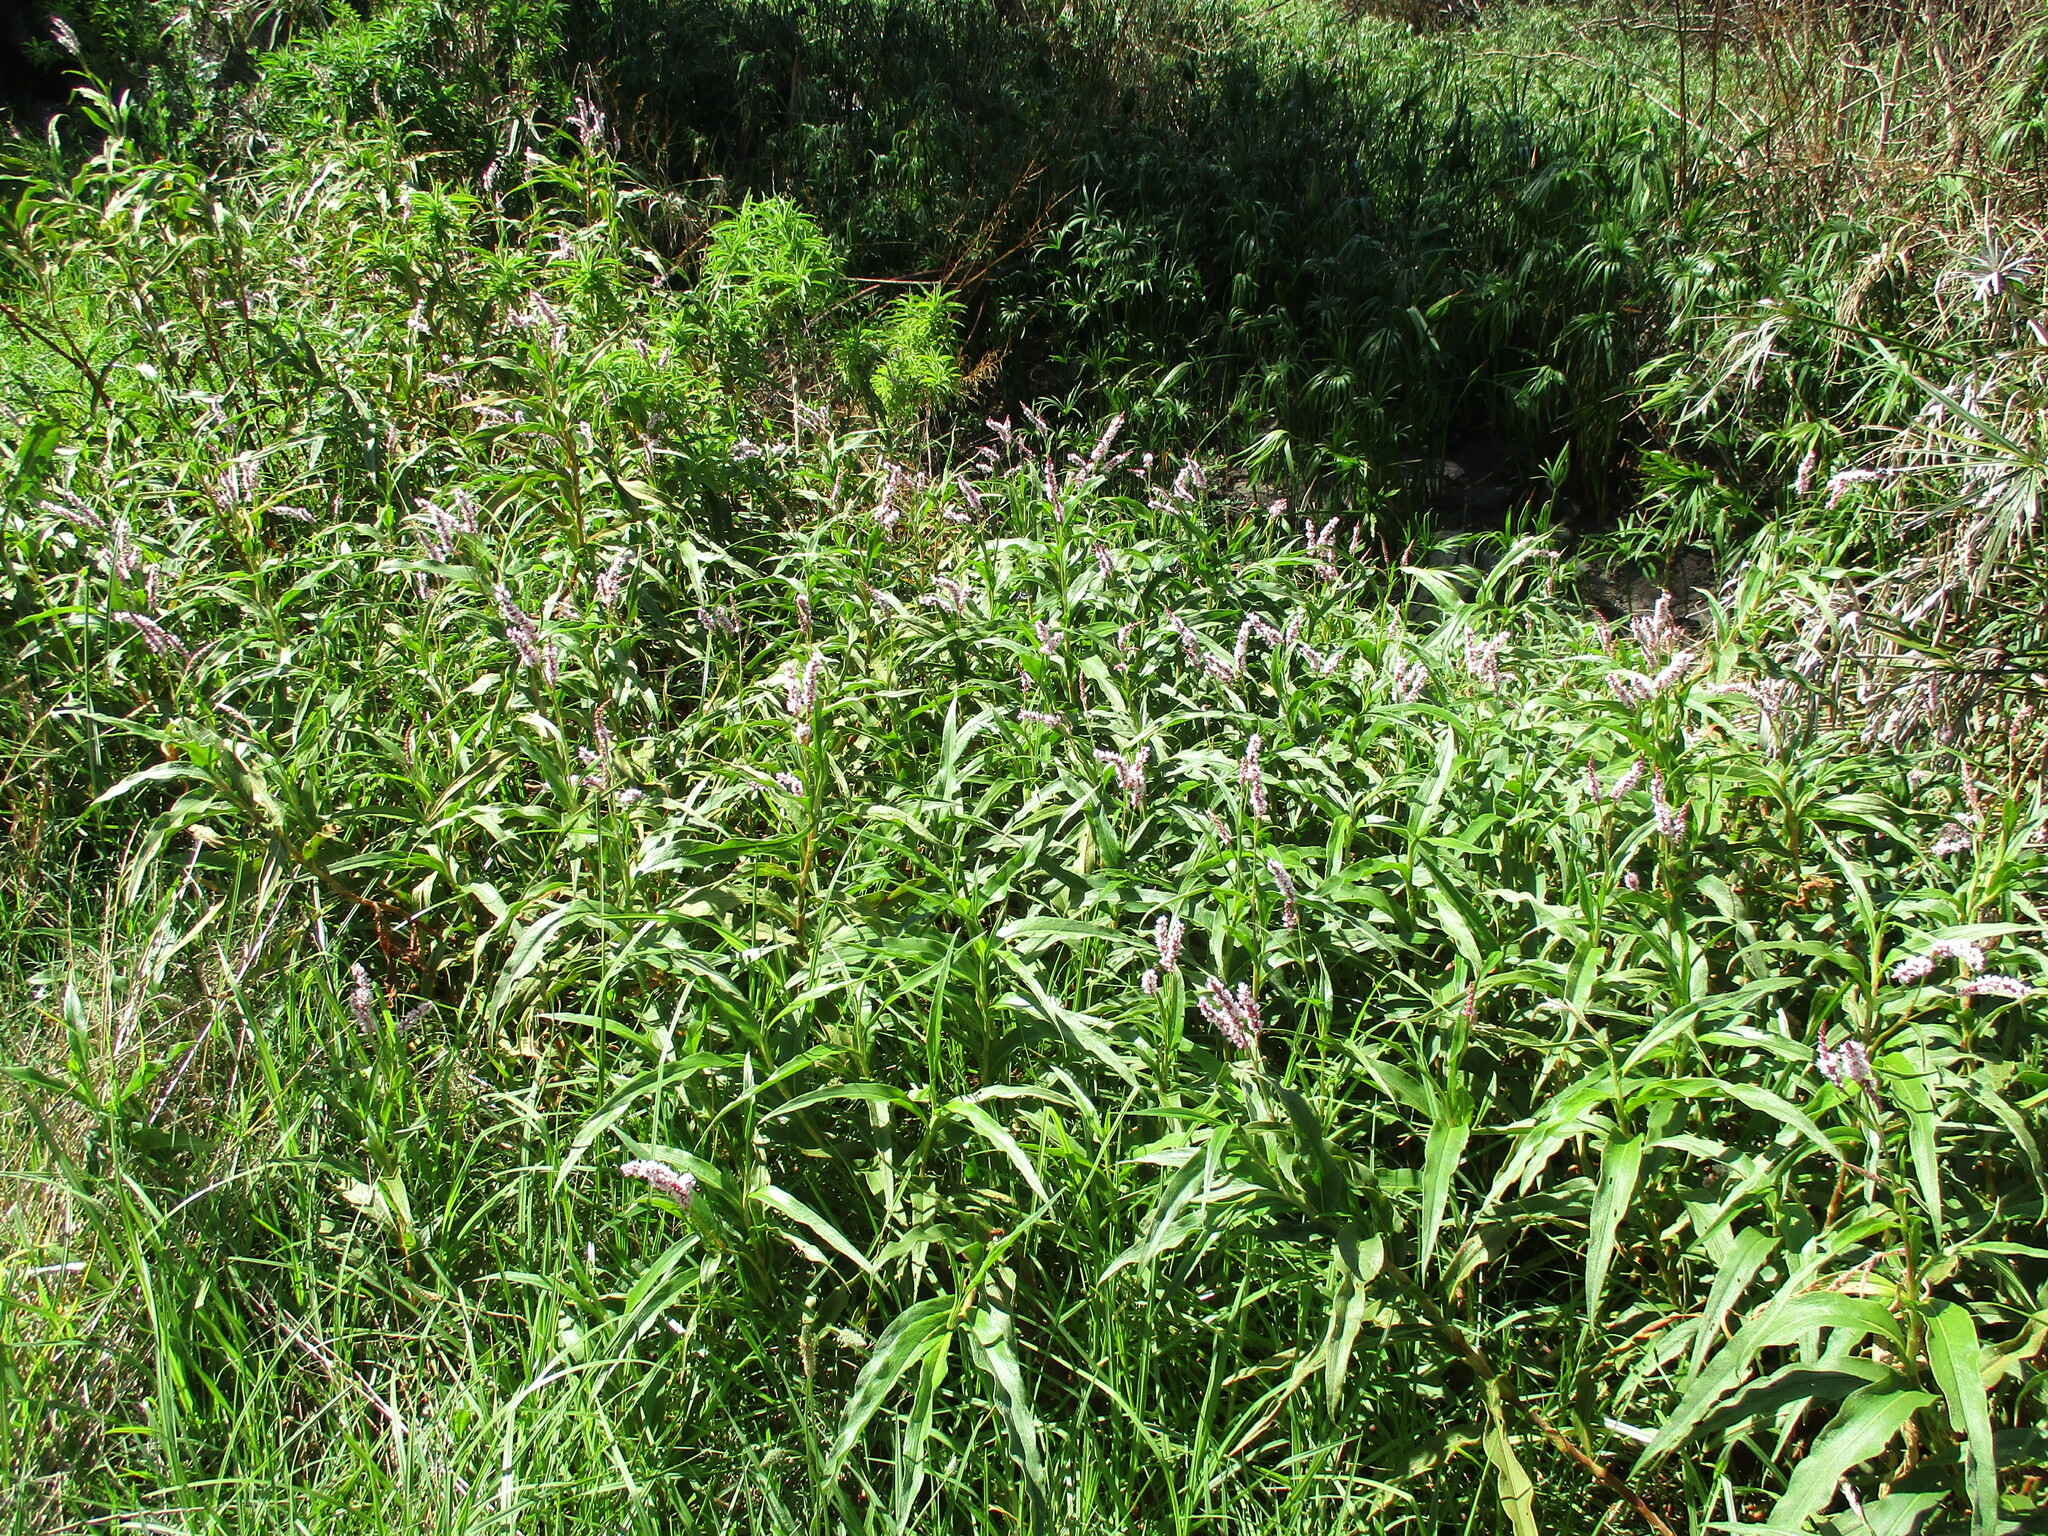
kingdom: Plantae
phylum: Tracheophyta
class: Magnoliopsida
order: Caryophyllales
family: Polygonaceae
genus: Persicaria
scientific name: Persicaria madagascariensis
